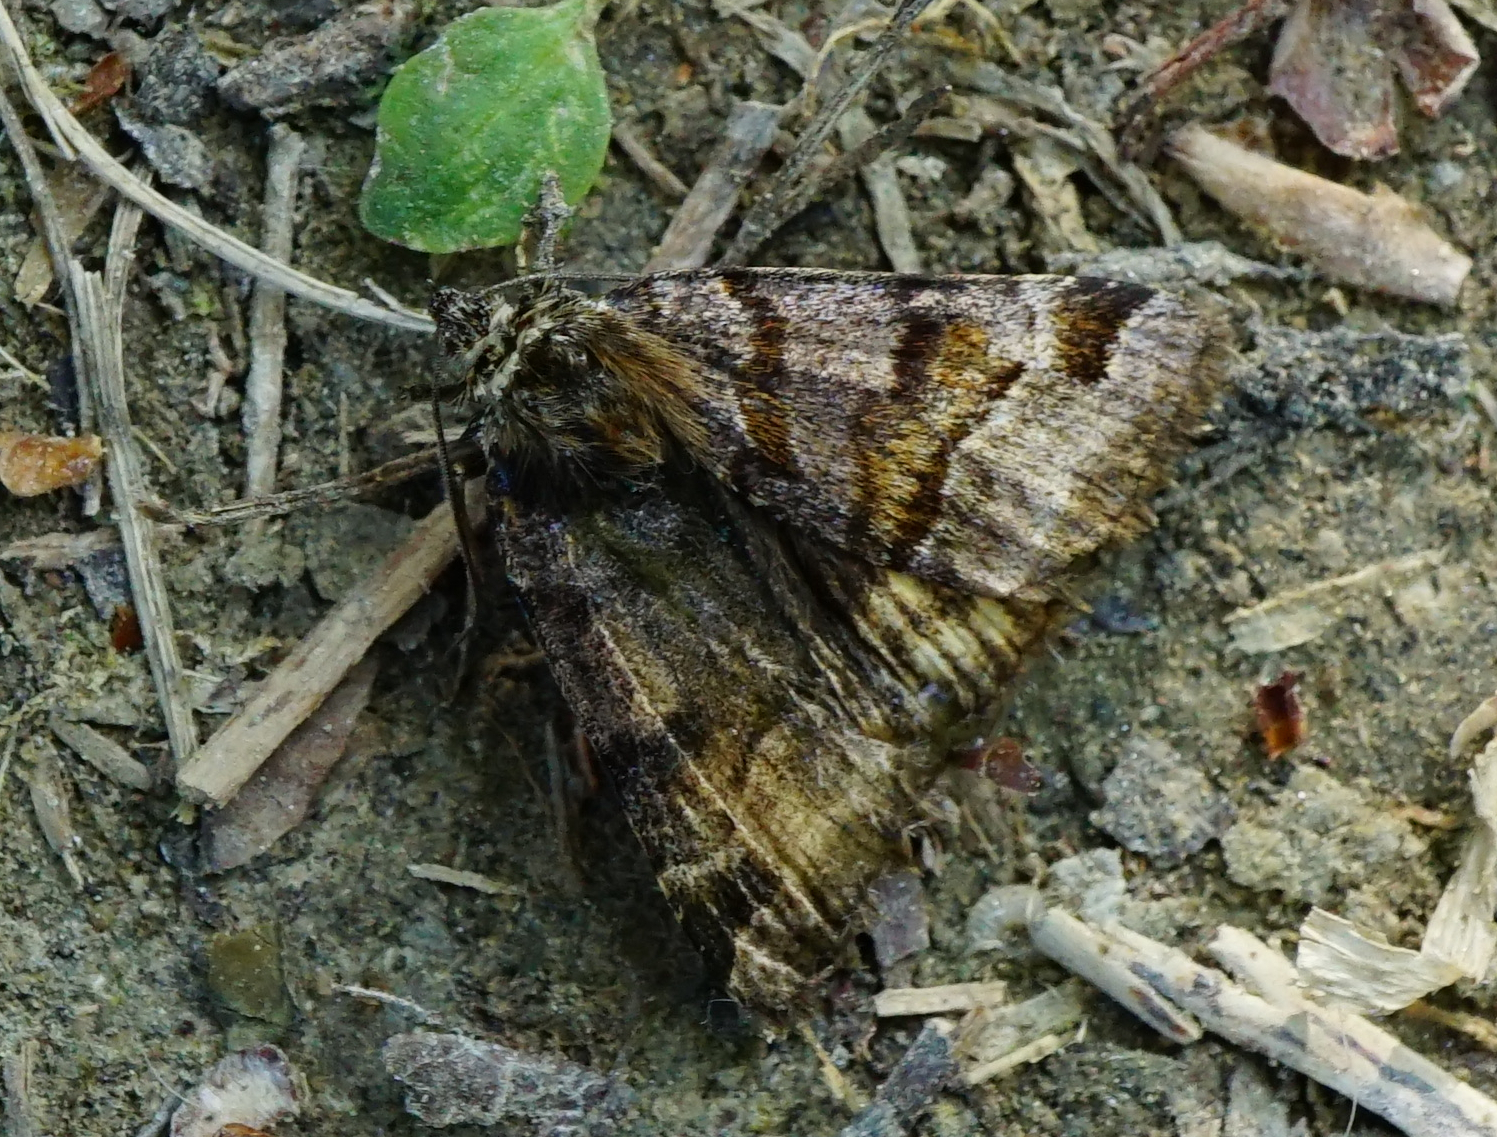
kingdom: Animalia
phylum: Arthropoda
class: Insecta
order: Lepidoptera
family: Erebidae
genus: Euclidia
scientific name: Euclidia glyphica
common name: Burnet companion
